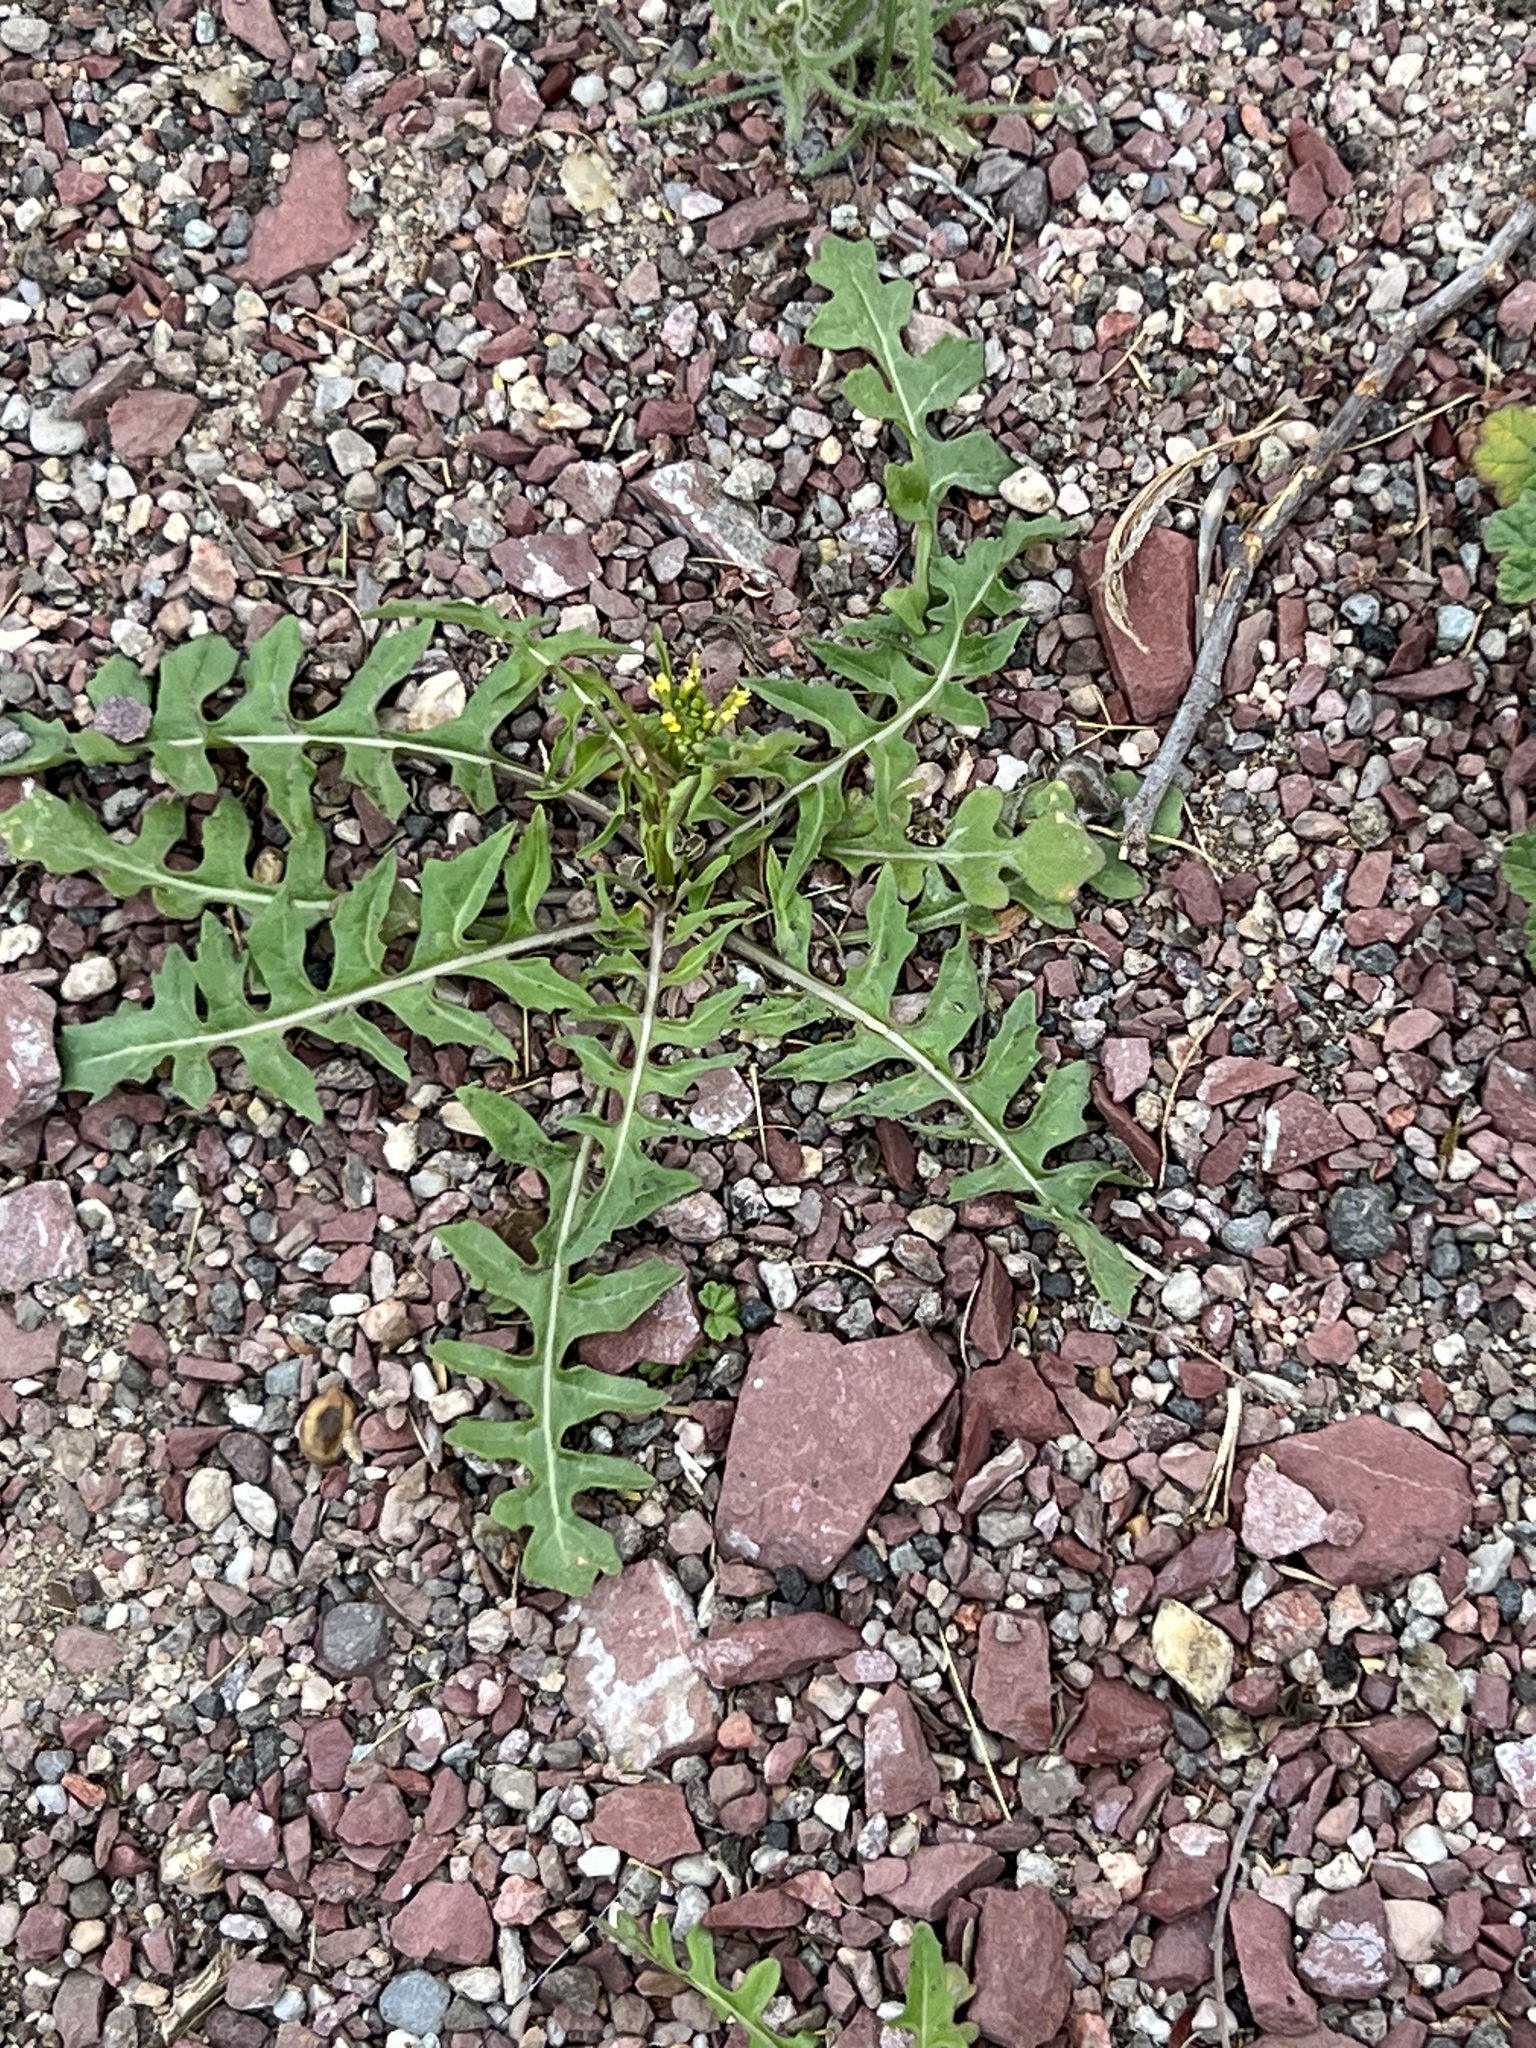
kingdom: Plantae
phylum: Tracheophyta
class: Magnoliopsida
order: Brassicales
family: Brassicaceae
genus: Sisymbrium
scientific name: Sisymbrium irio
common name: London rocket
